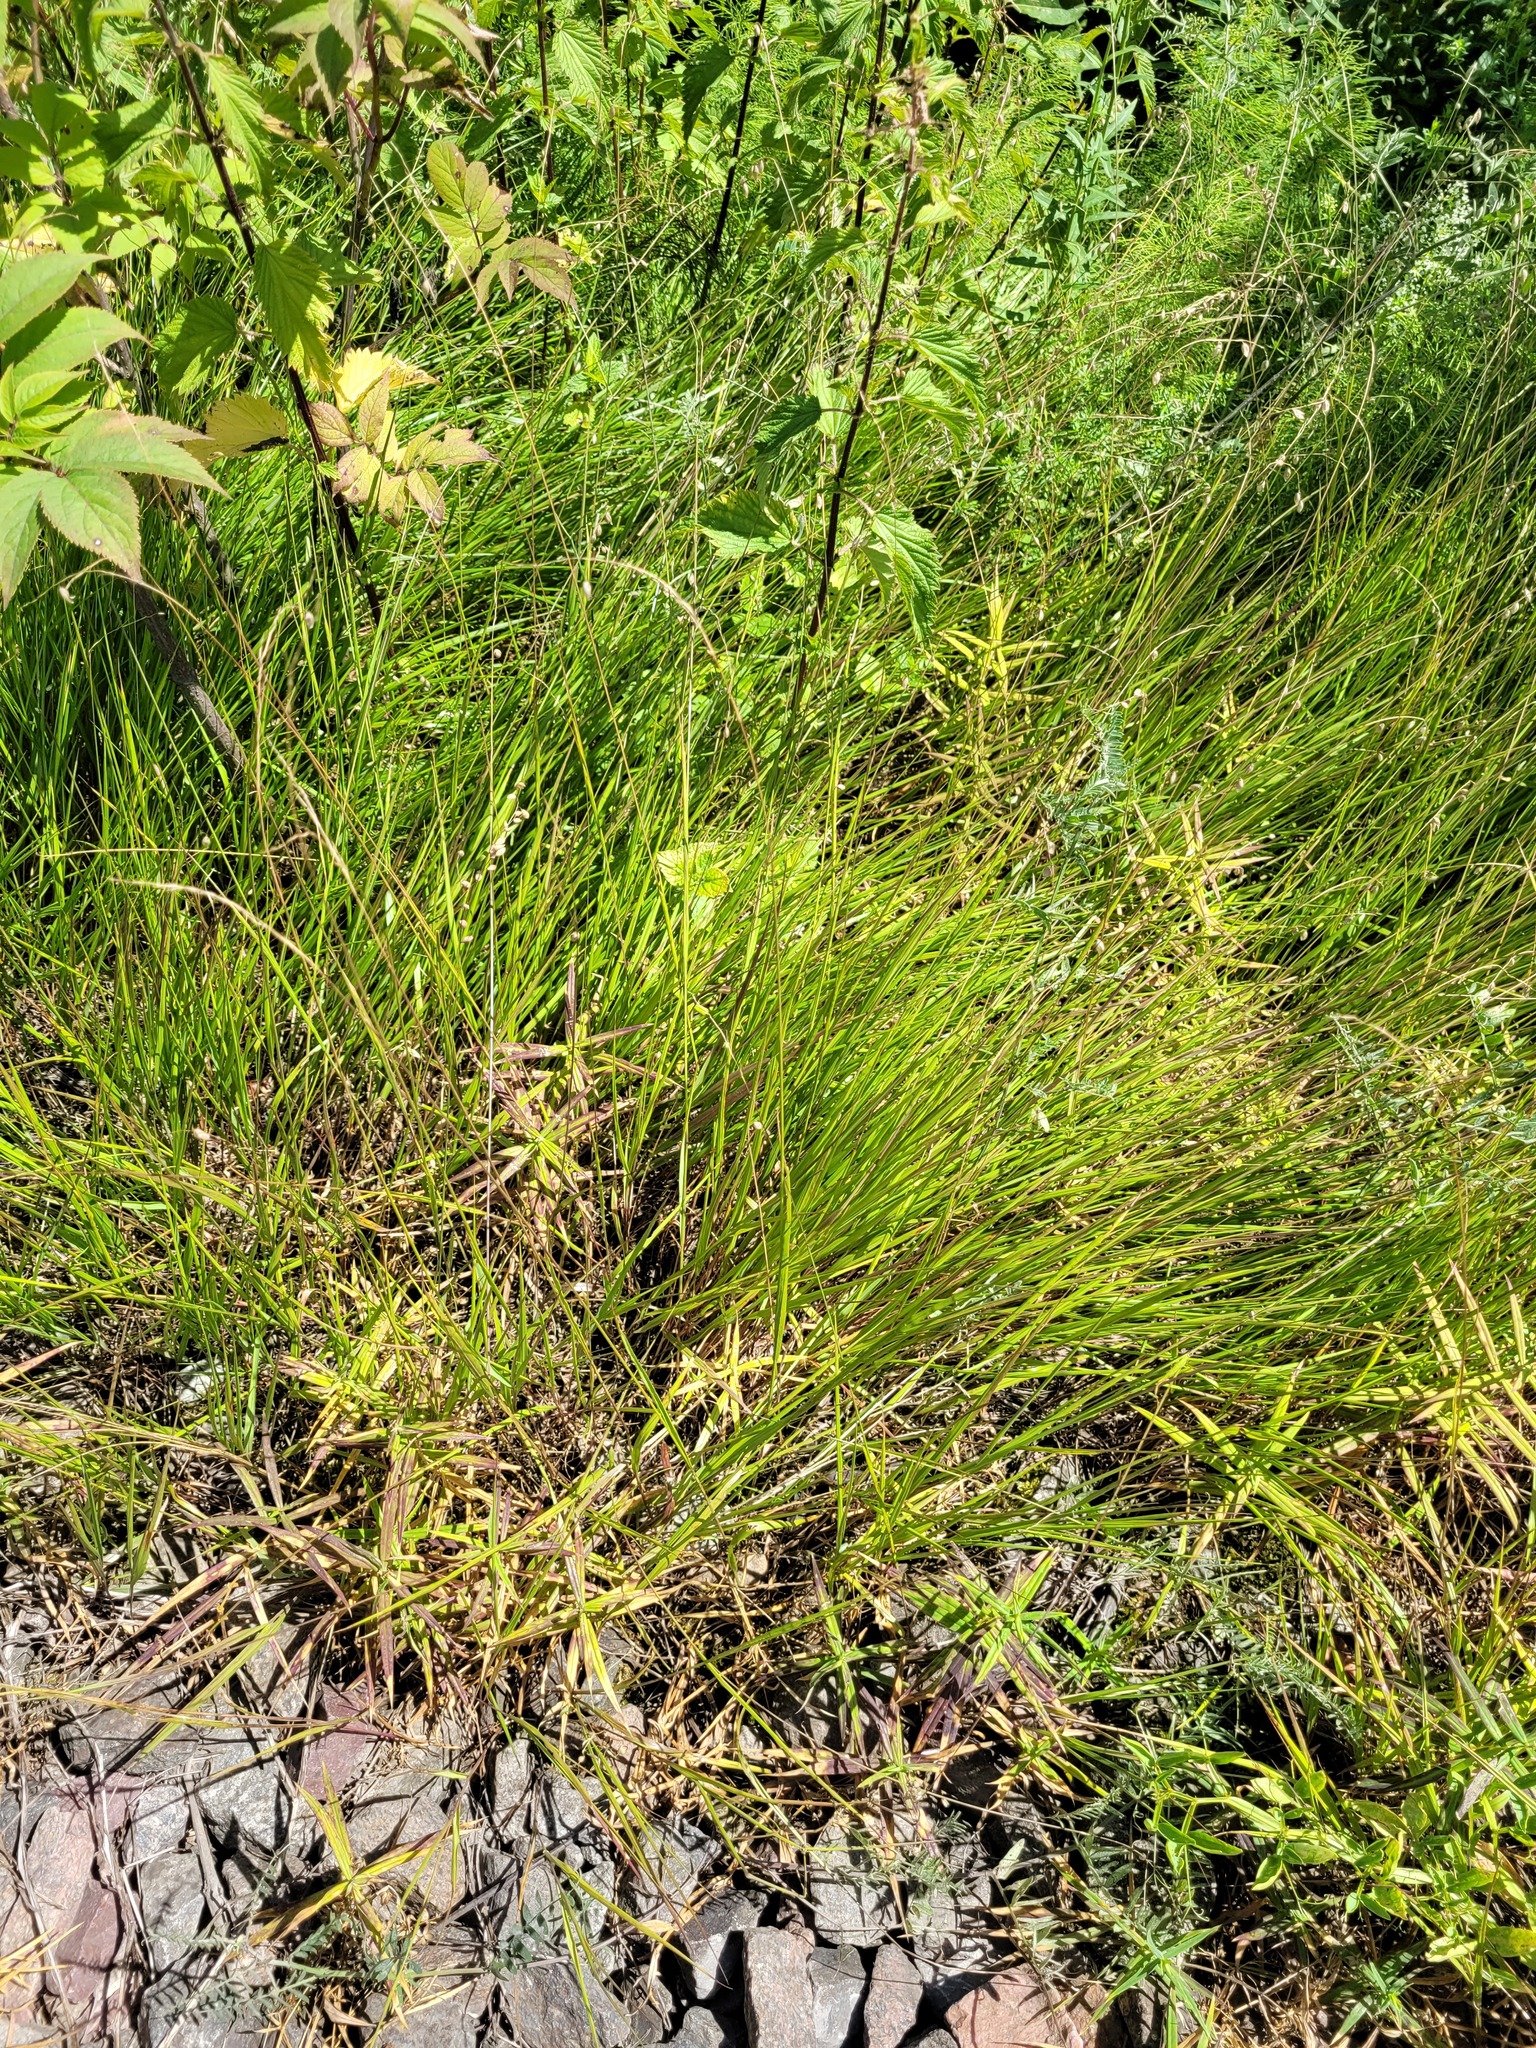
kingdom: Plantae
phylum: Tracheophyta
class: Liliopsida
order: Poales
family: Poaceae
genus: Melica
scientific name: Melica nutans
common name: Mountain melick
